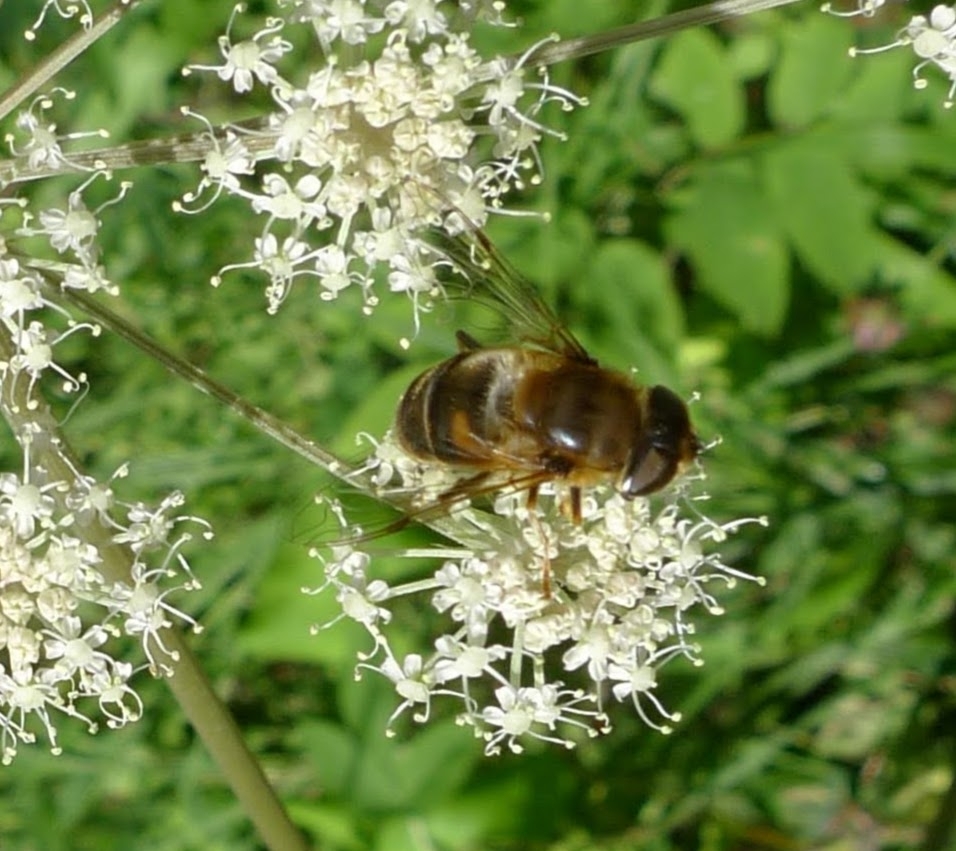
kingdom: Animalia
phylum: Arthropoda
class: Insecta
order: Diptera
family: Syrphidae
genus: Eristalis
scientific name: Eristalis pertinax
